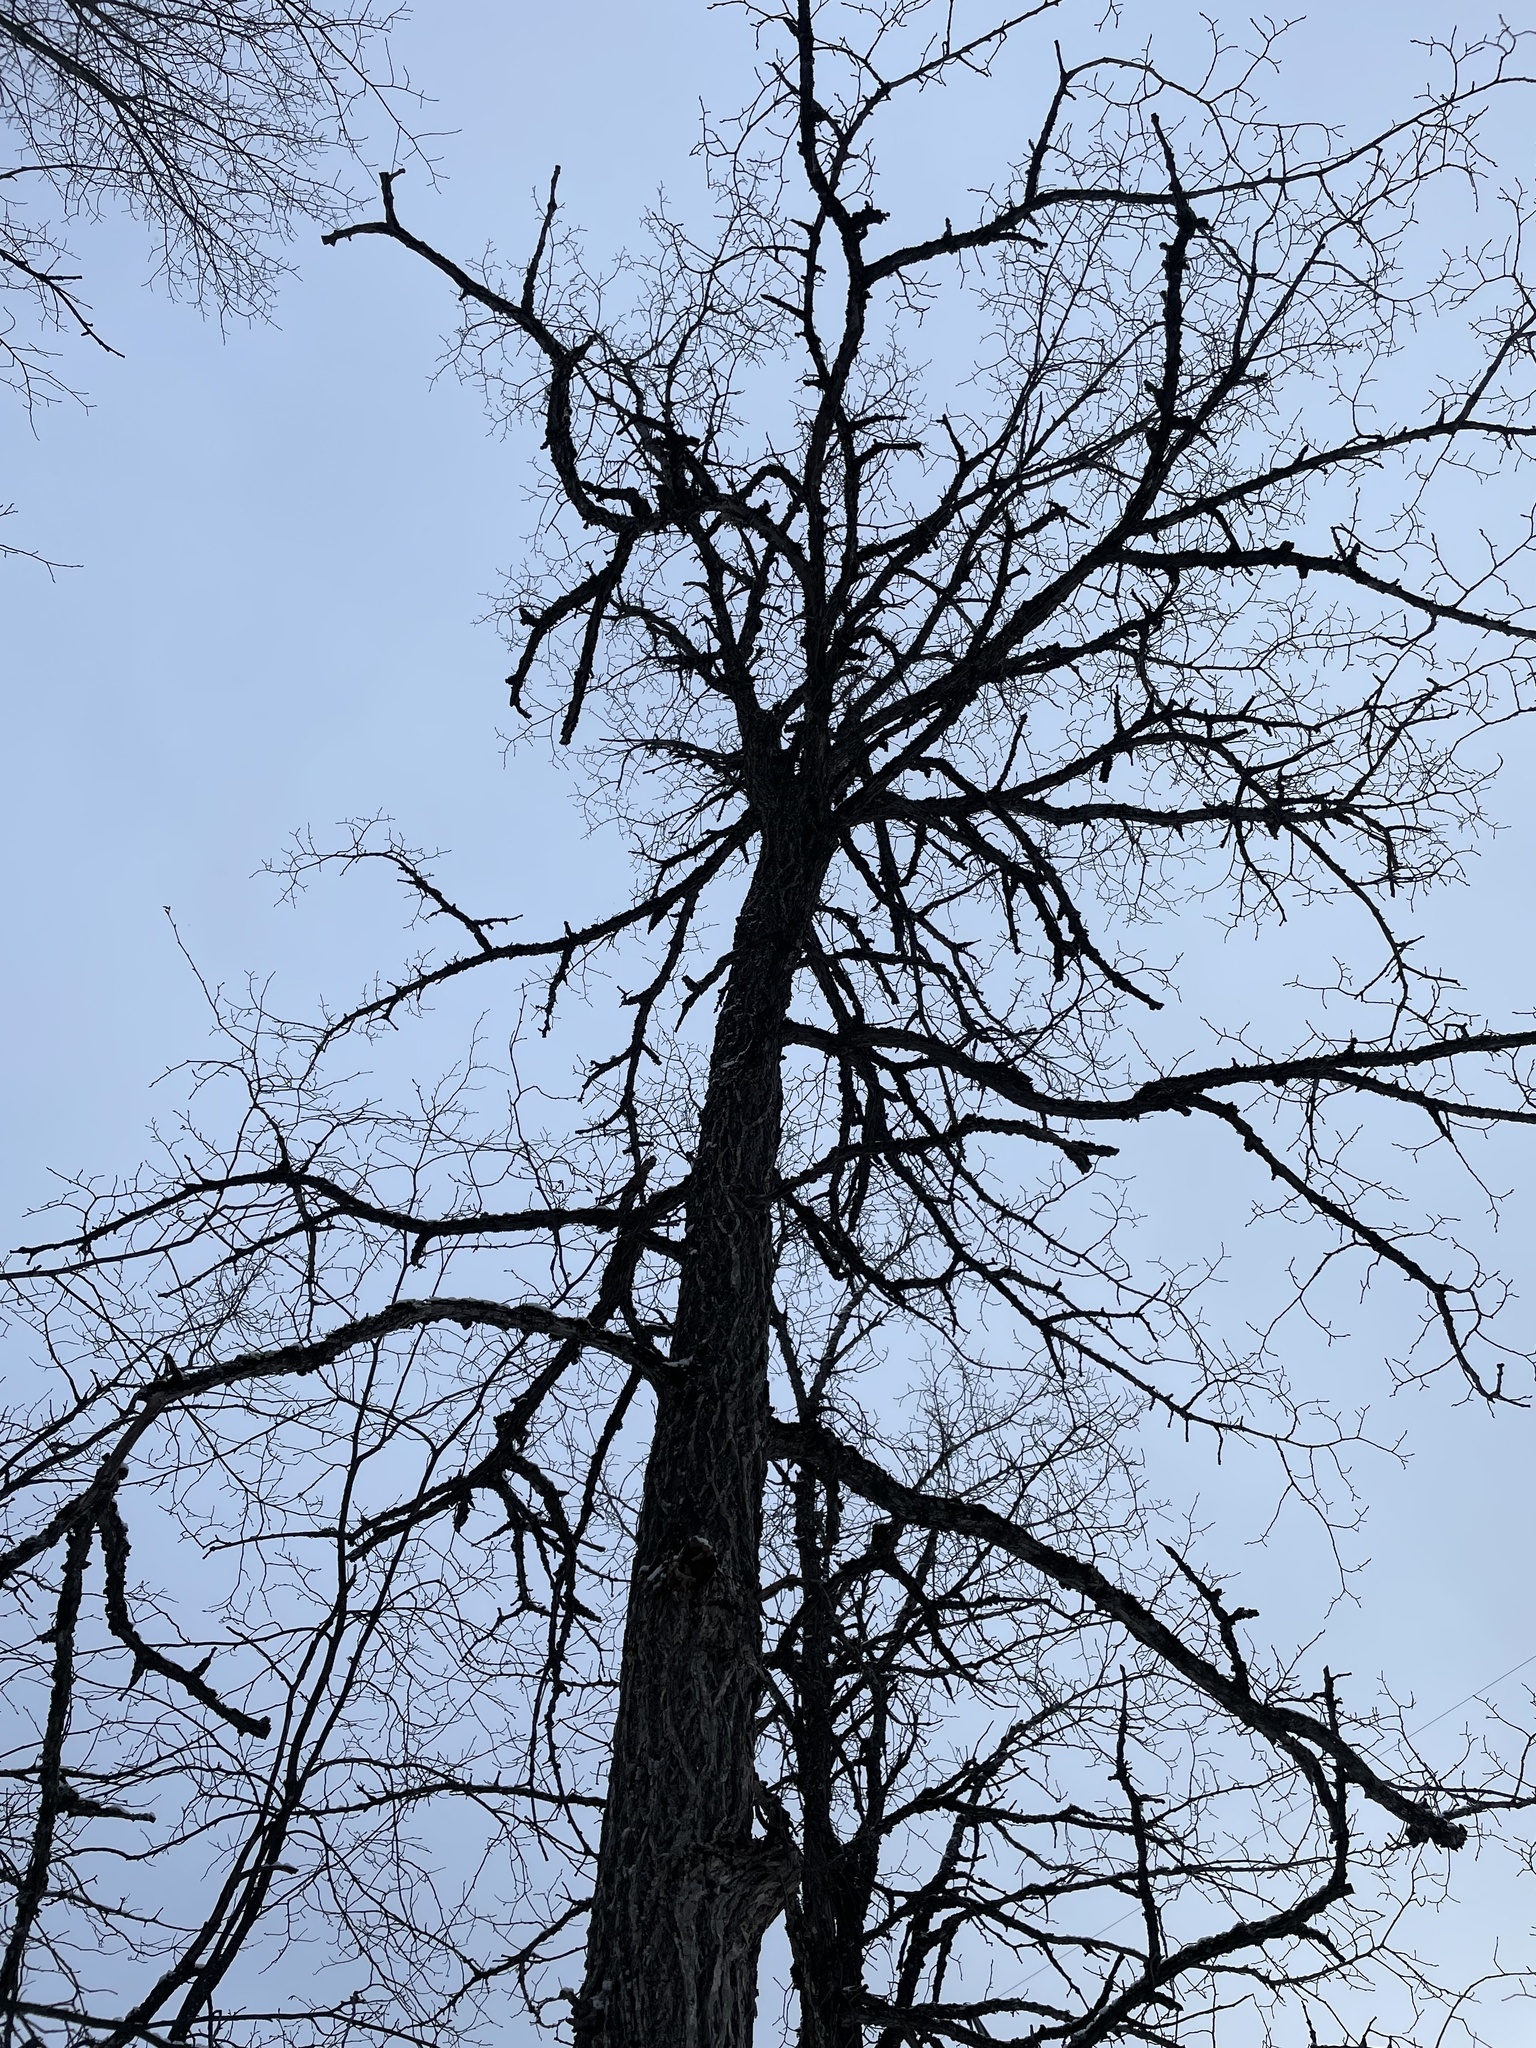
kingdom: Plantae
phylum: Tracheophyta
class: Magnoliopsida
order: Rosales
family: Ulmaceae
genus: Ulmus
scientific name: Ulmus thomasii
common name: Rock elm
